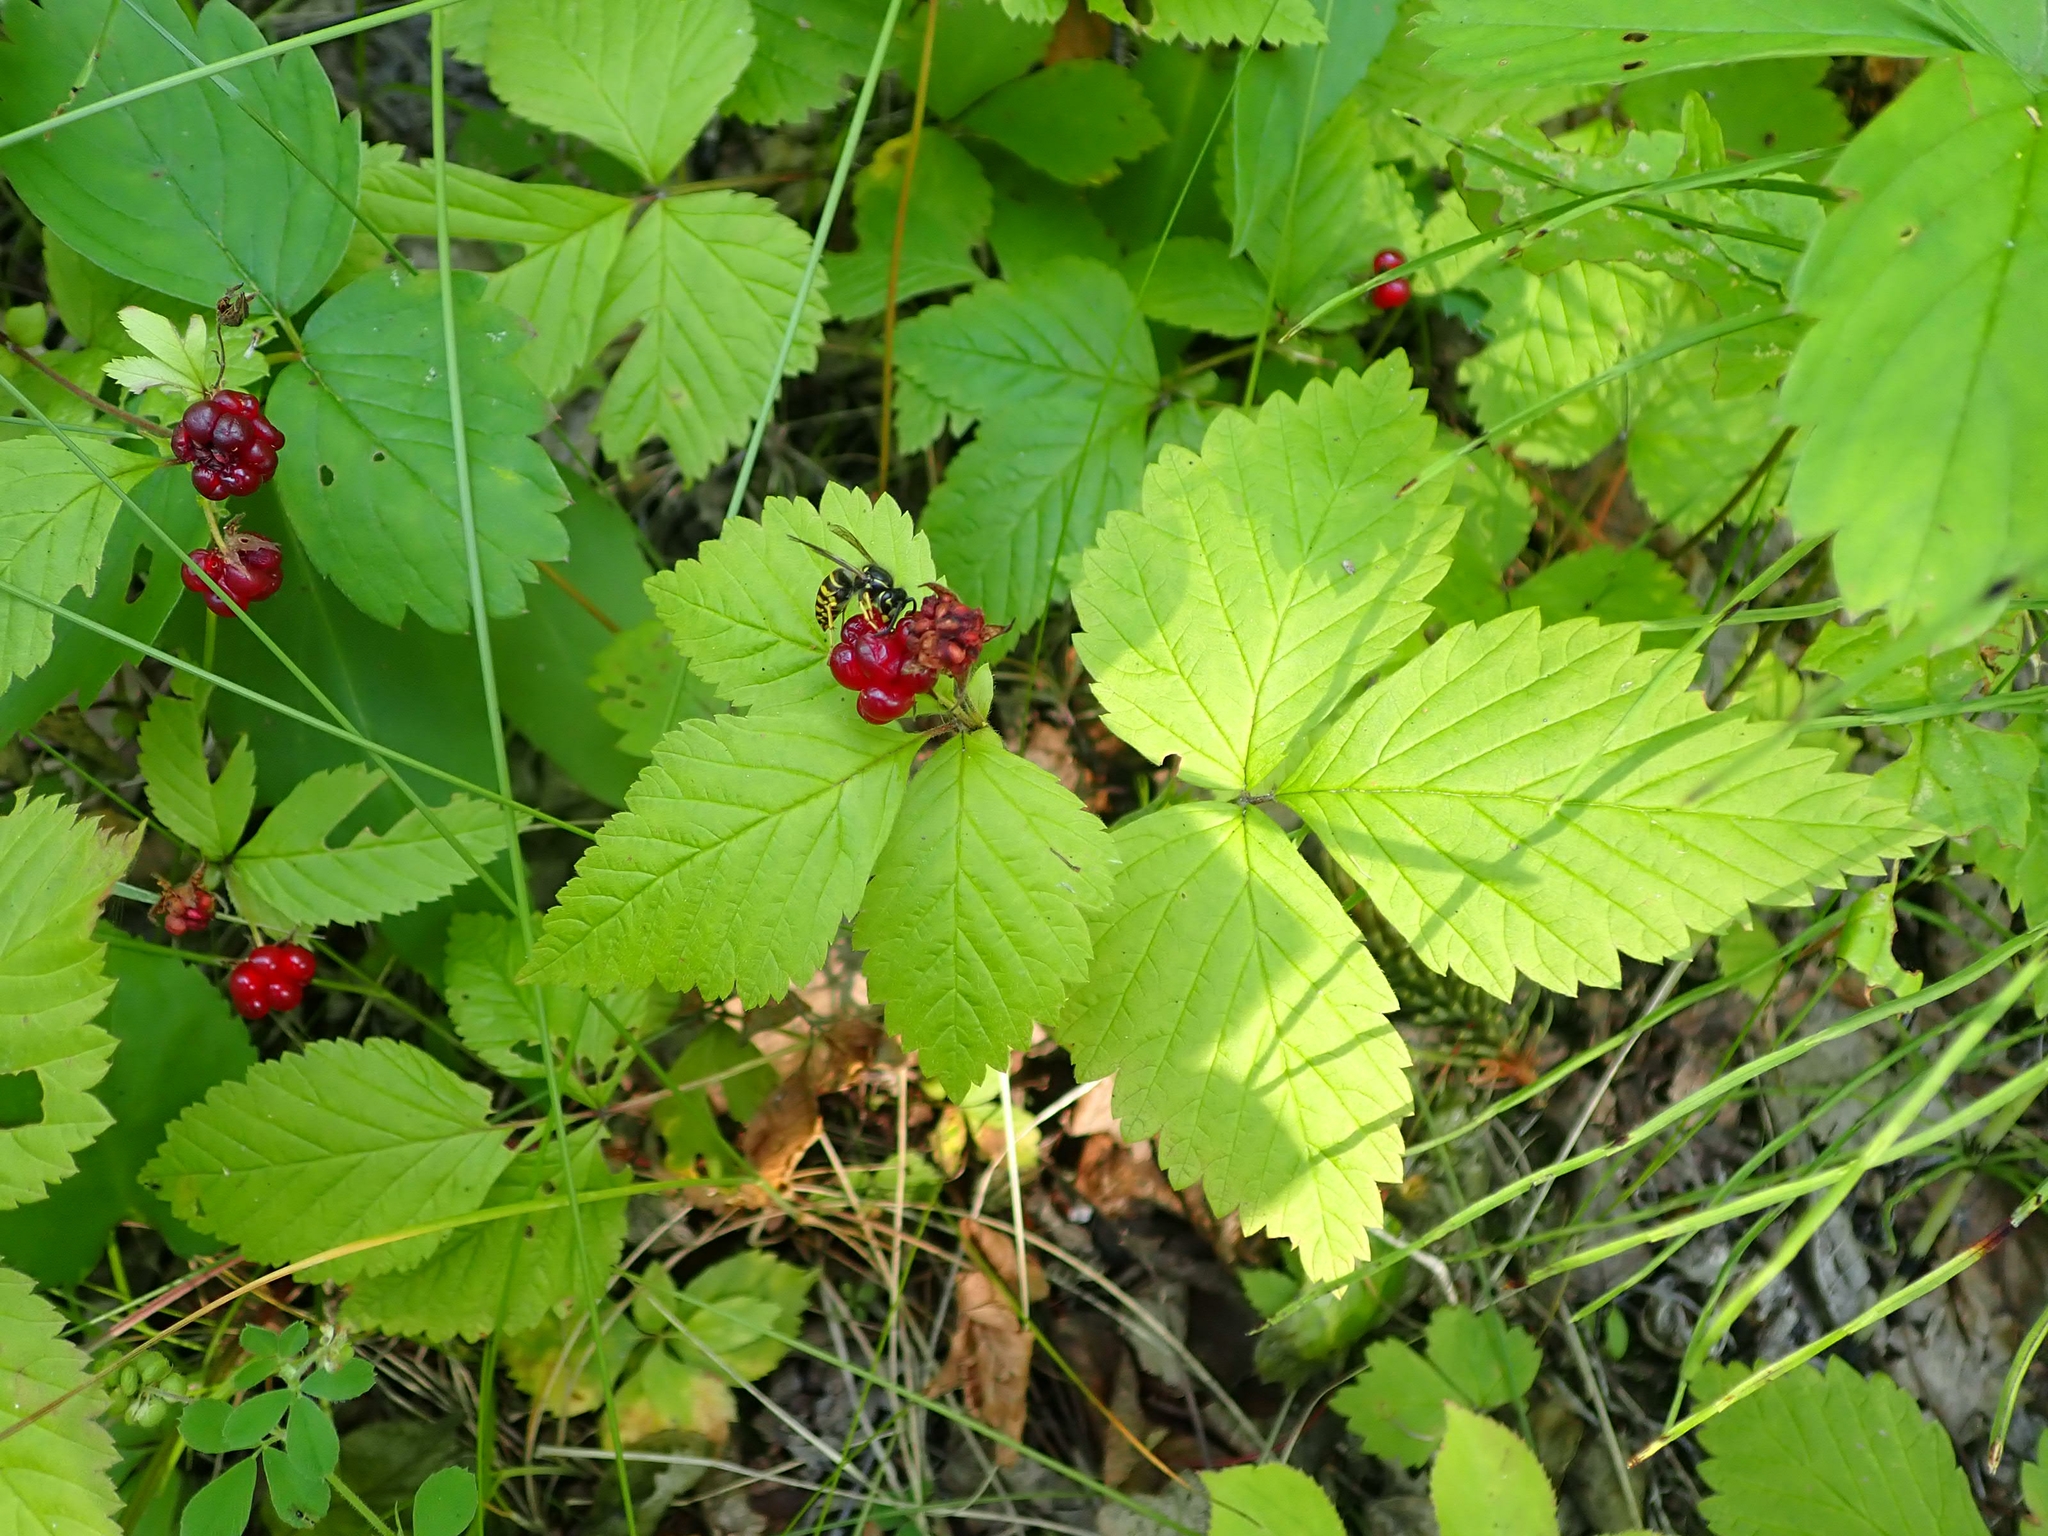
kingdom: Plantae
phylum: Tracheophyta
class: Magnoliopsida
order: Rosales
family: Rosaceae
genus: Rubus
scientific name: Rubus pubescens
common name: Dwarf raspberry
